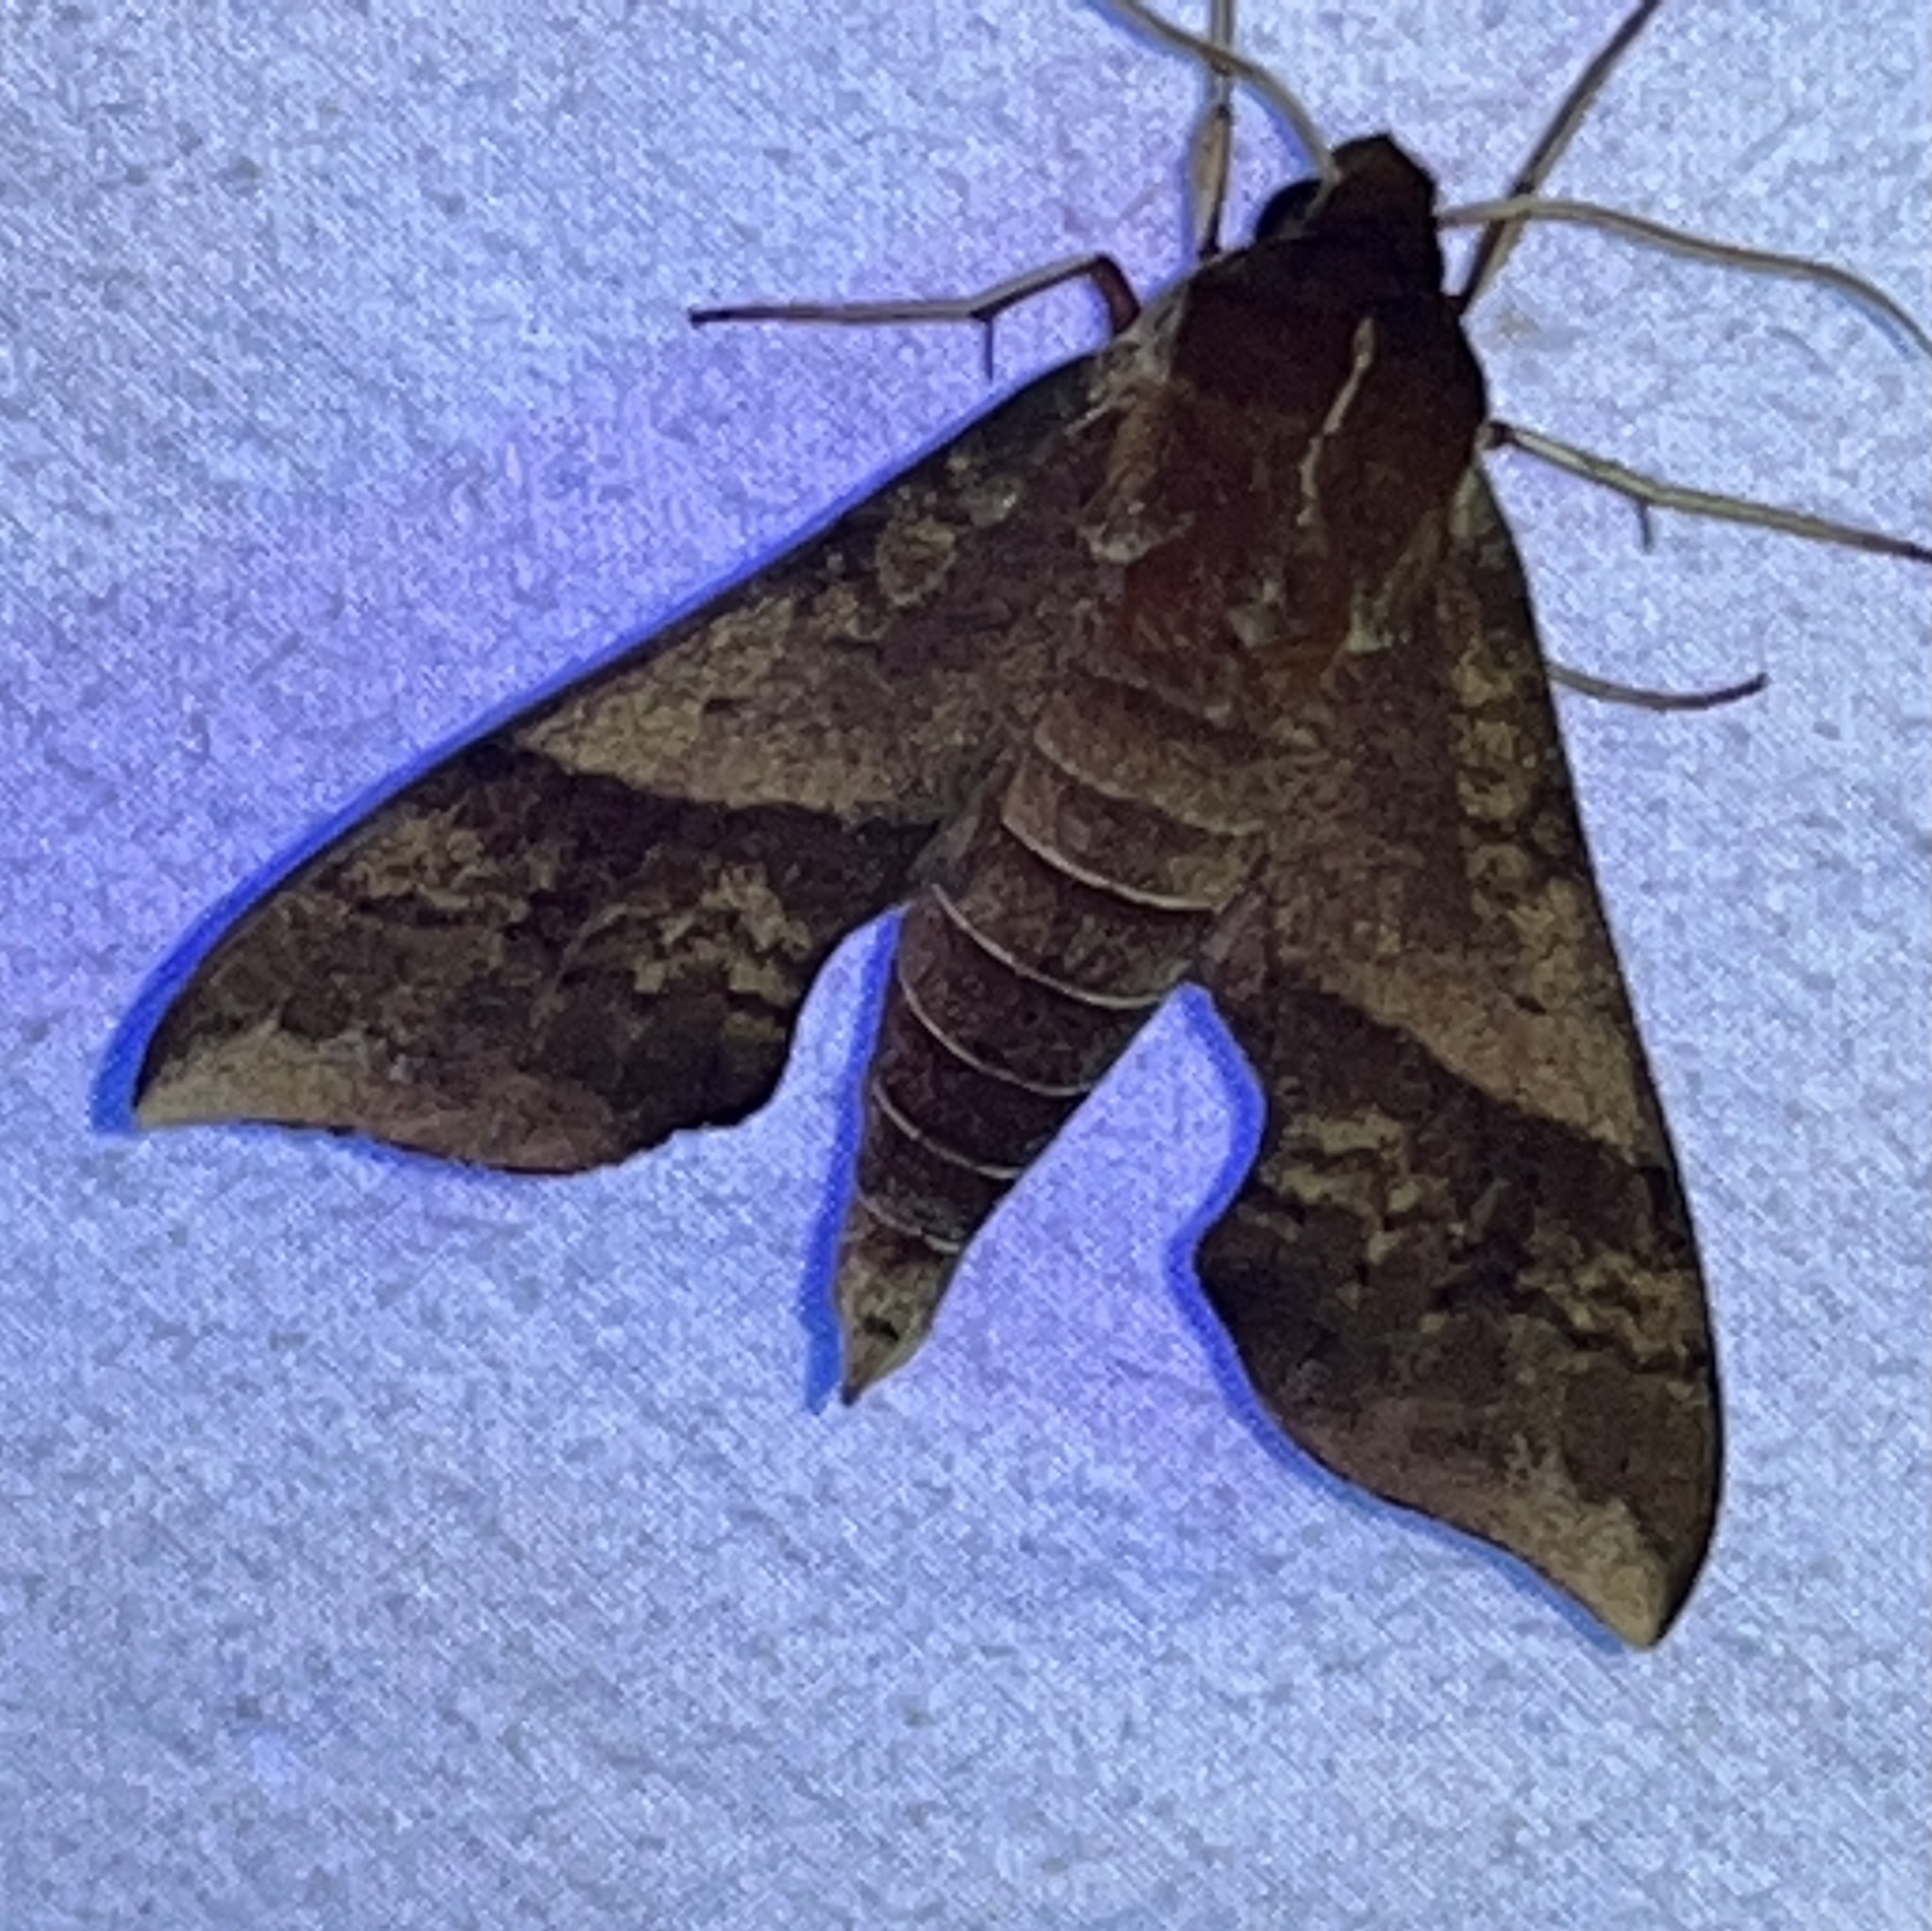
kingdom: Animalia
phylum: Arthropoda
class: Insecta
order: Lepidoptera
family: Sphingidae
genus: Darapsa
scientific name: Darapsa choerilus
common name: Azalea sphinx
